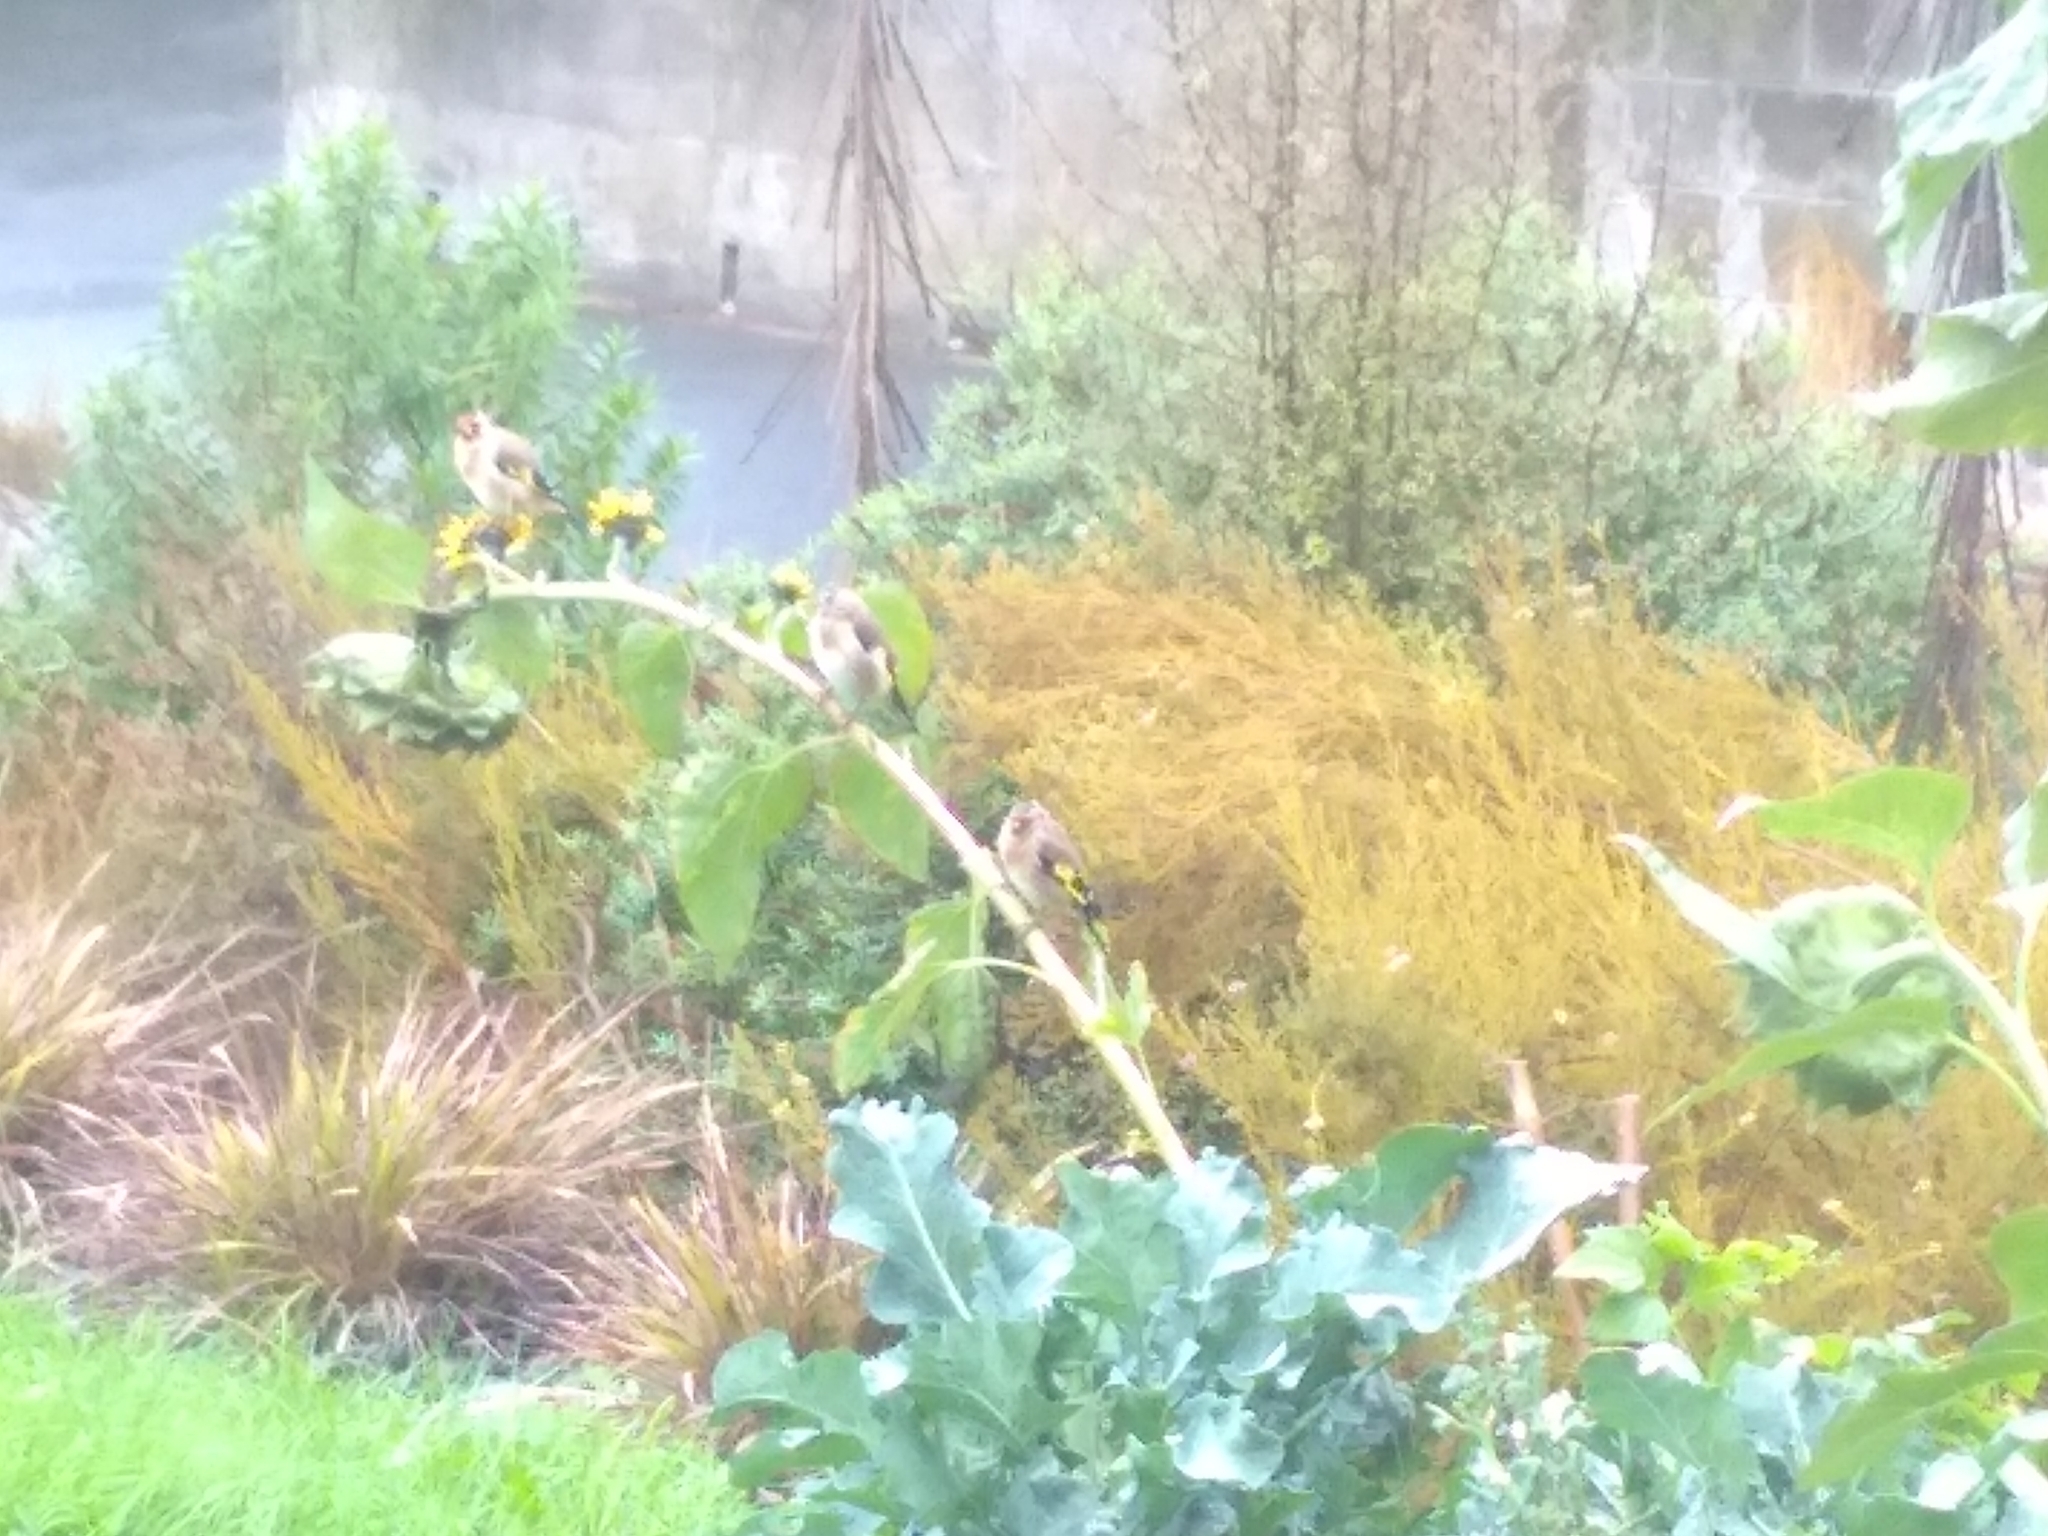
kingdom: Animalia
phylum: Chordata
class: Aves
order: Passeriformes
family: Fringillidae
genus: Carduelis
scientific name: Carduelis carduelis
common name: European goldfinch
